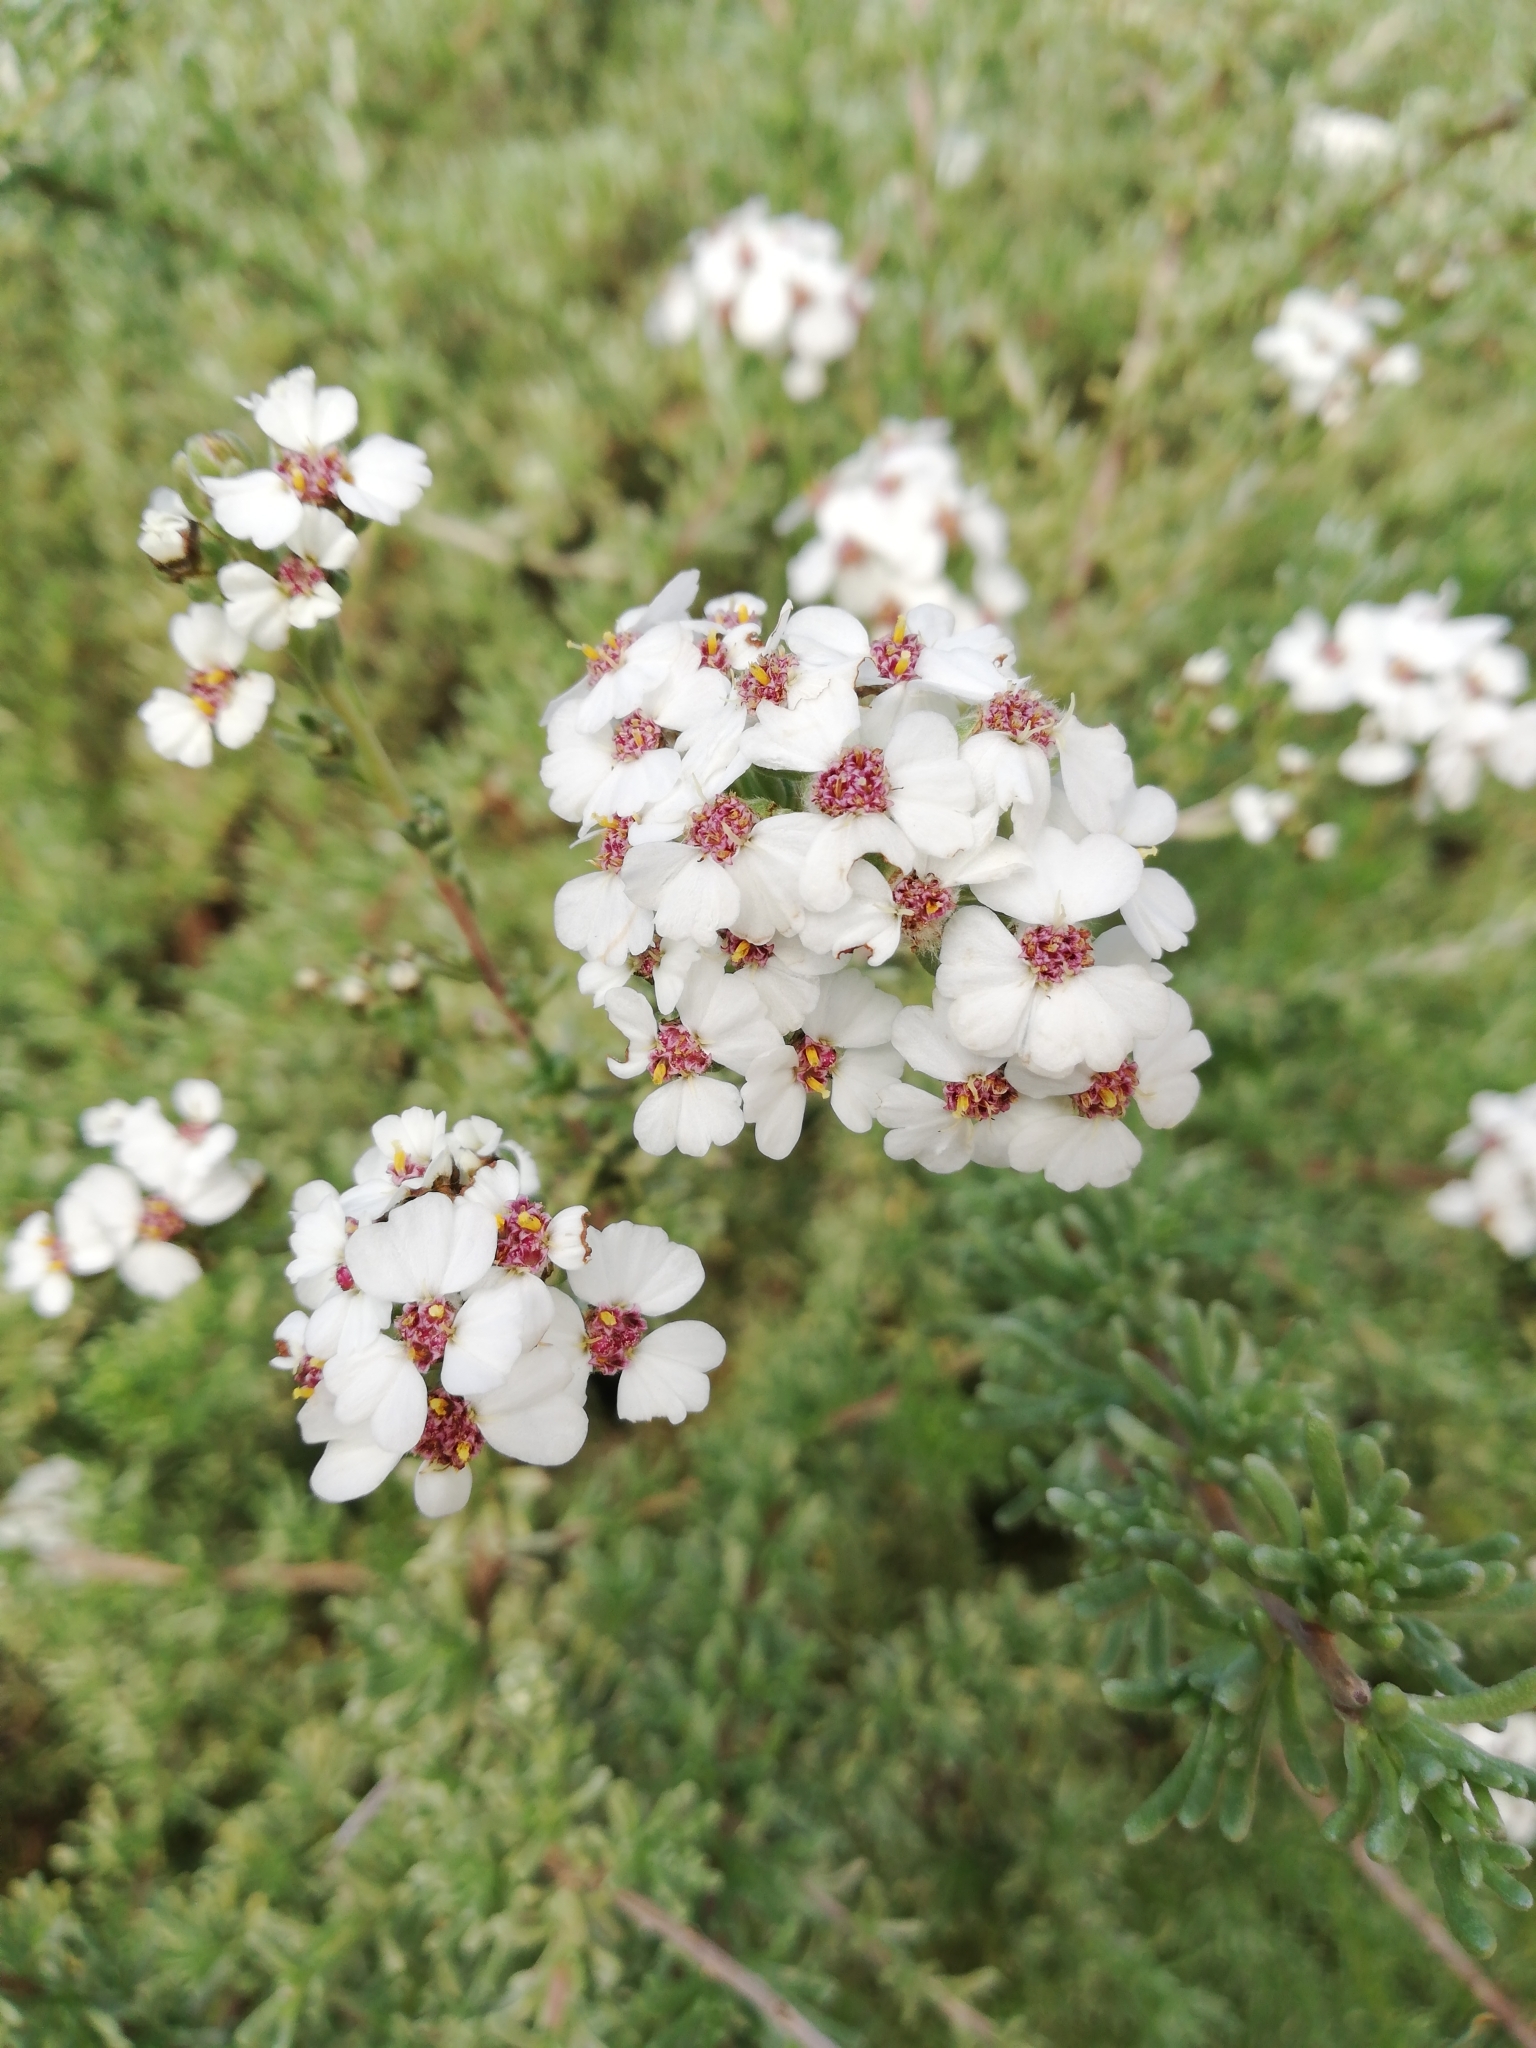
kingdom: Plantae
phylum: Tracheophyta
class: Magnoliopsida
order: Asterales
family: Asteraceae
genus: Eriocephalus
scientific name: Eriocephalus africanus
